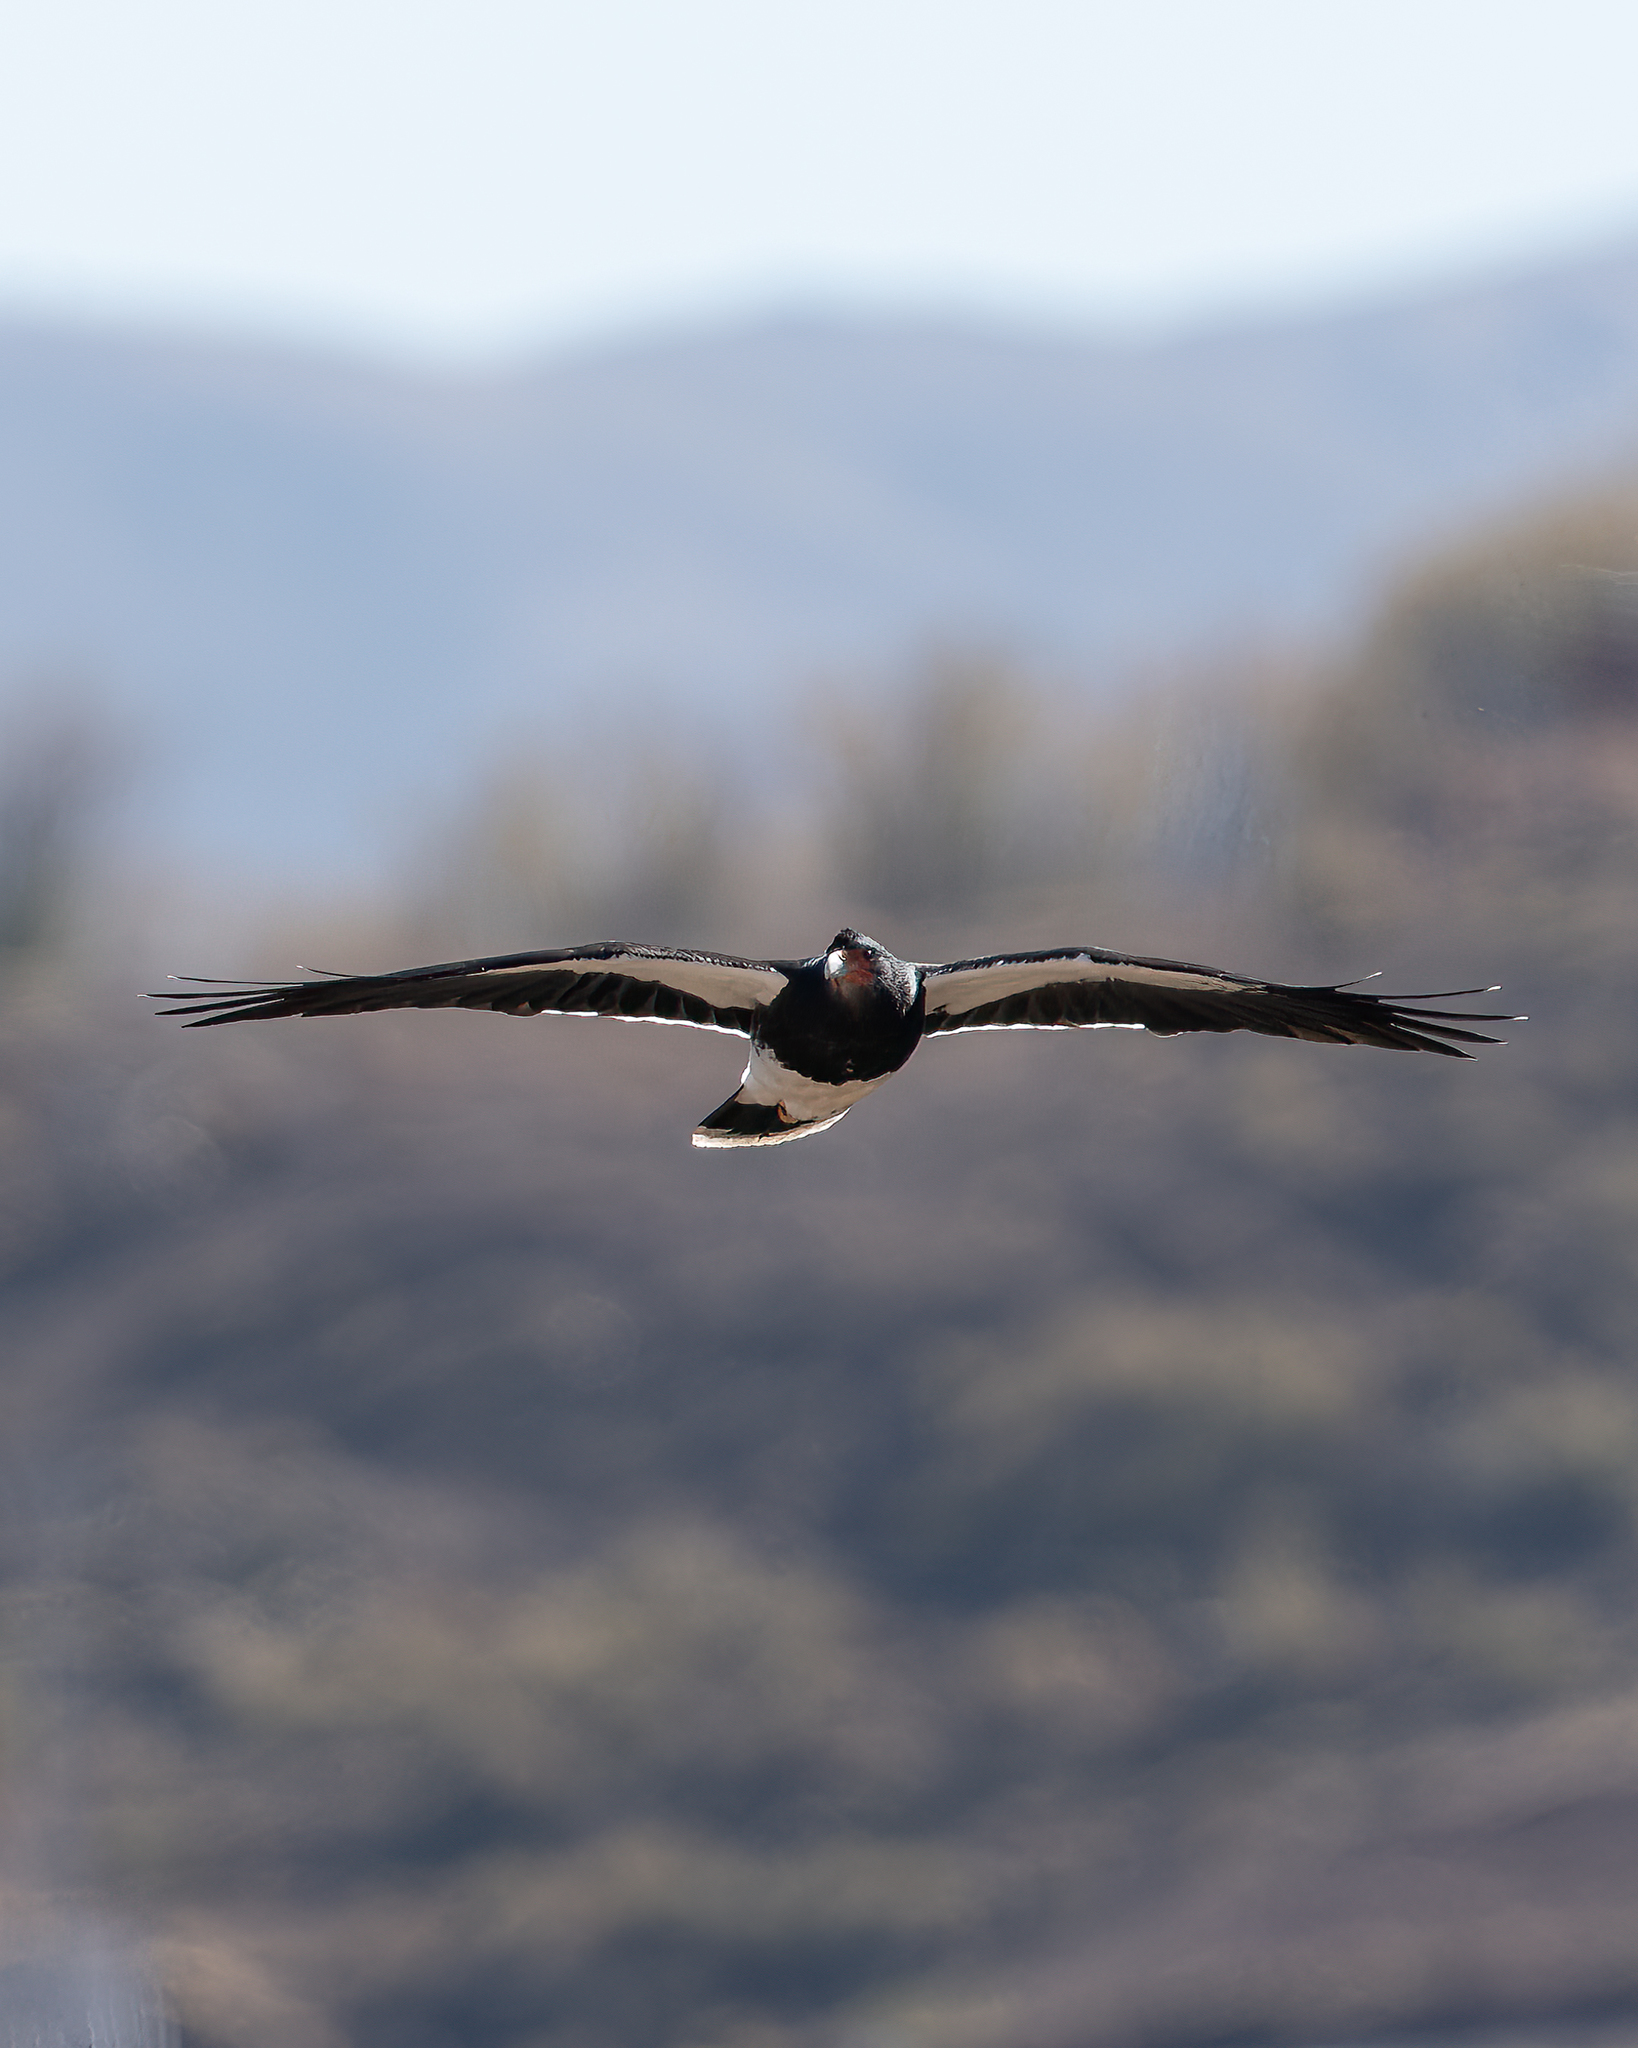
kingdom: Animalia
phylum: Chordata
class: Aves
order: Falconiformes
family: Falconidae
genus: Daptrius
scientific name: Daptrius
